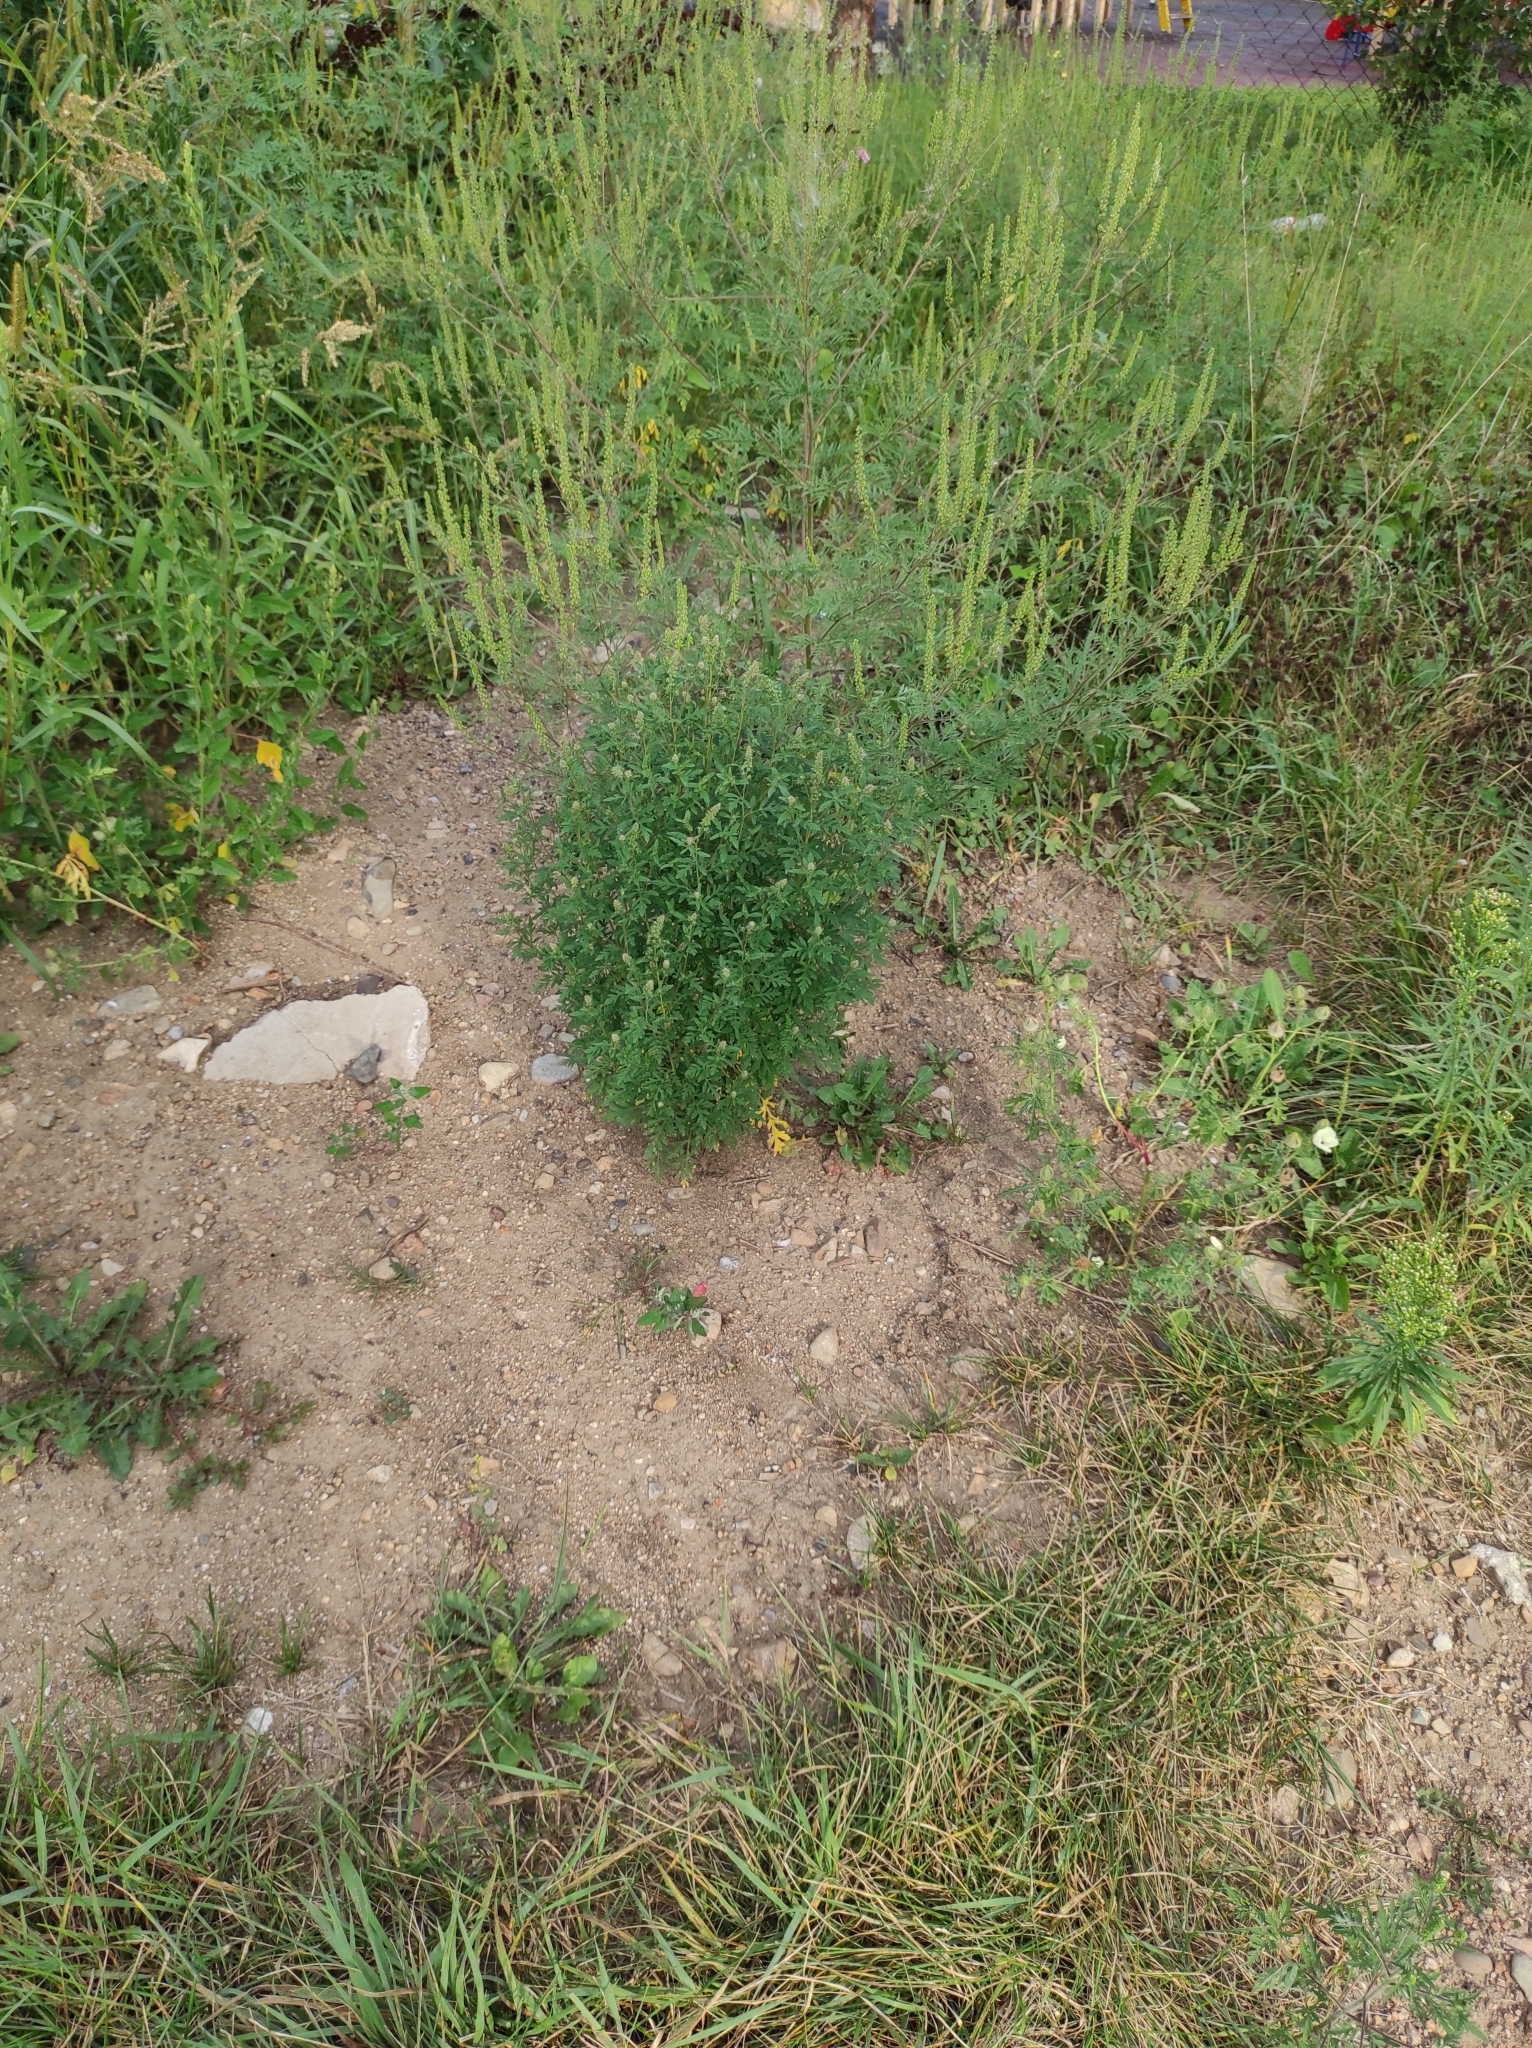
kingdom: Plantae
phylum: Tracheophyta
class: Magnoliopsida
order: Asterales
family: Asteraceae
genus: Ambrosia
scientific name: Ambrosia artemisiifolia
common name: Annual ragweed
